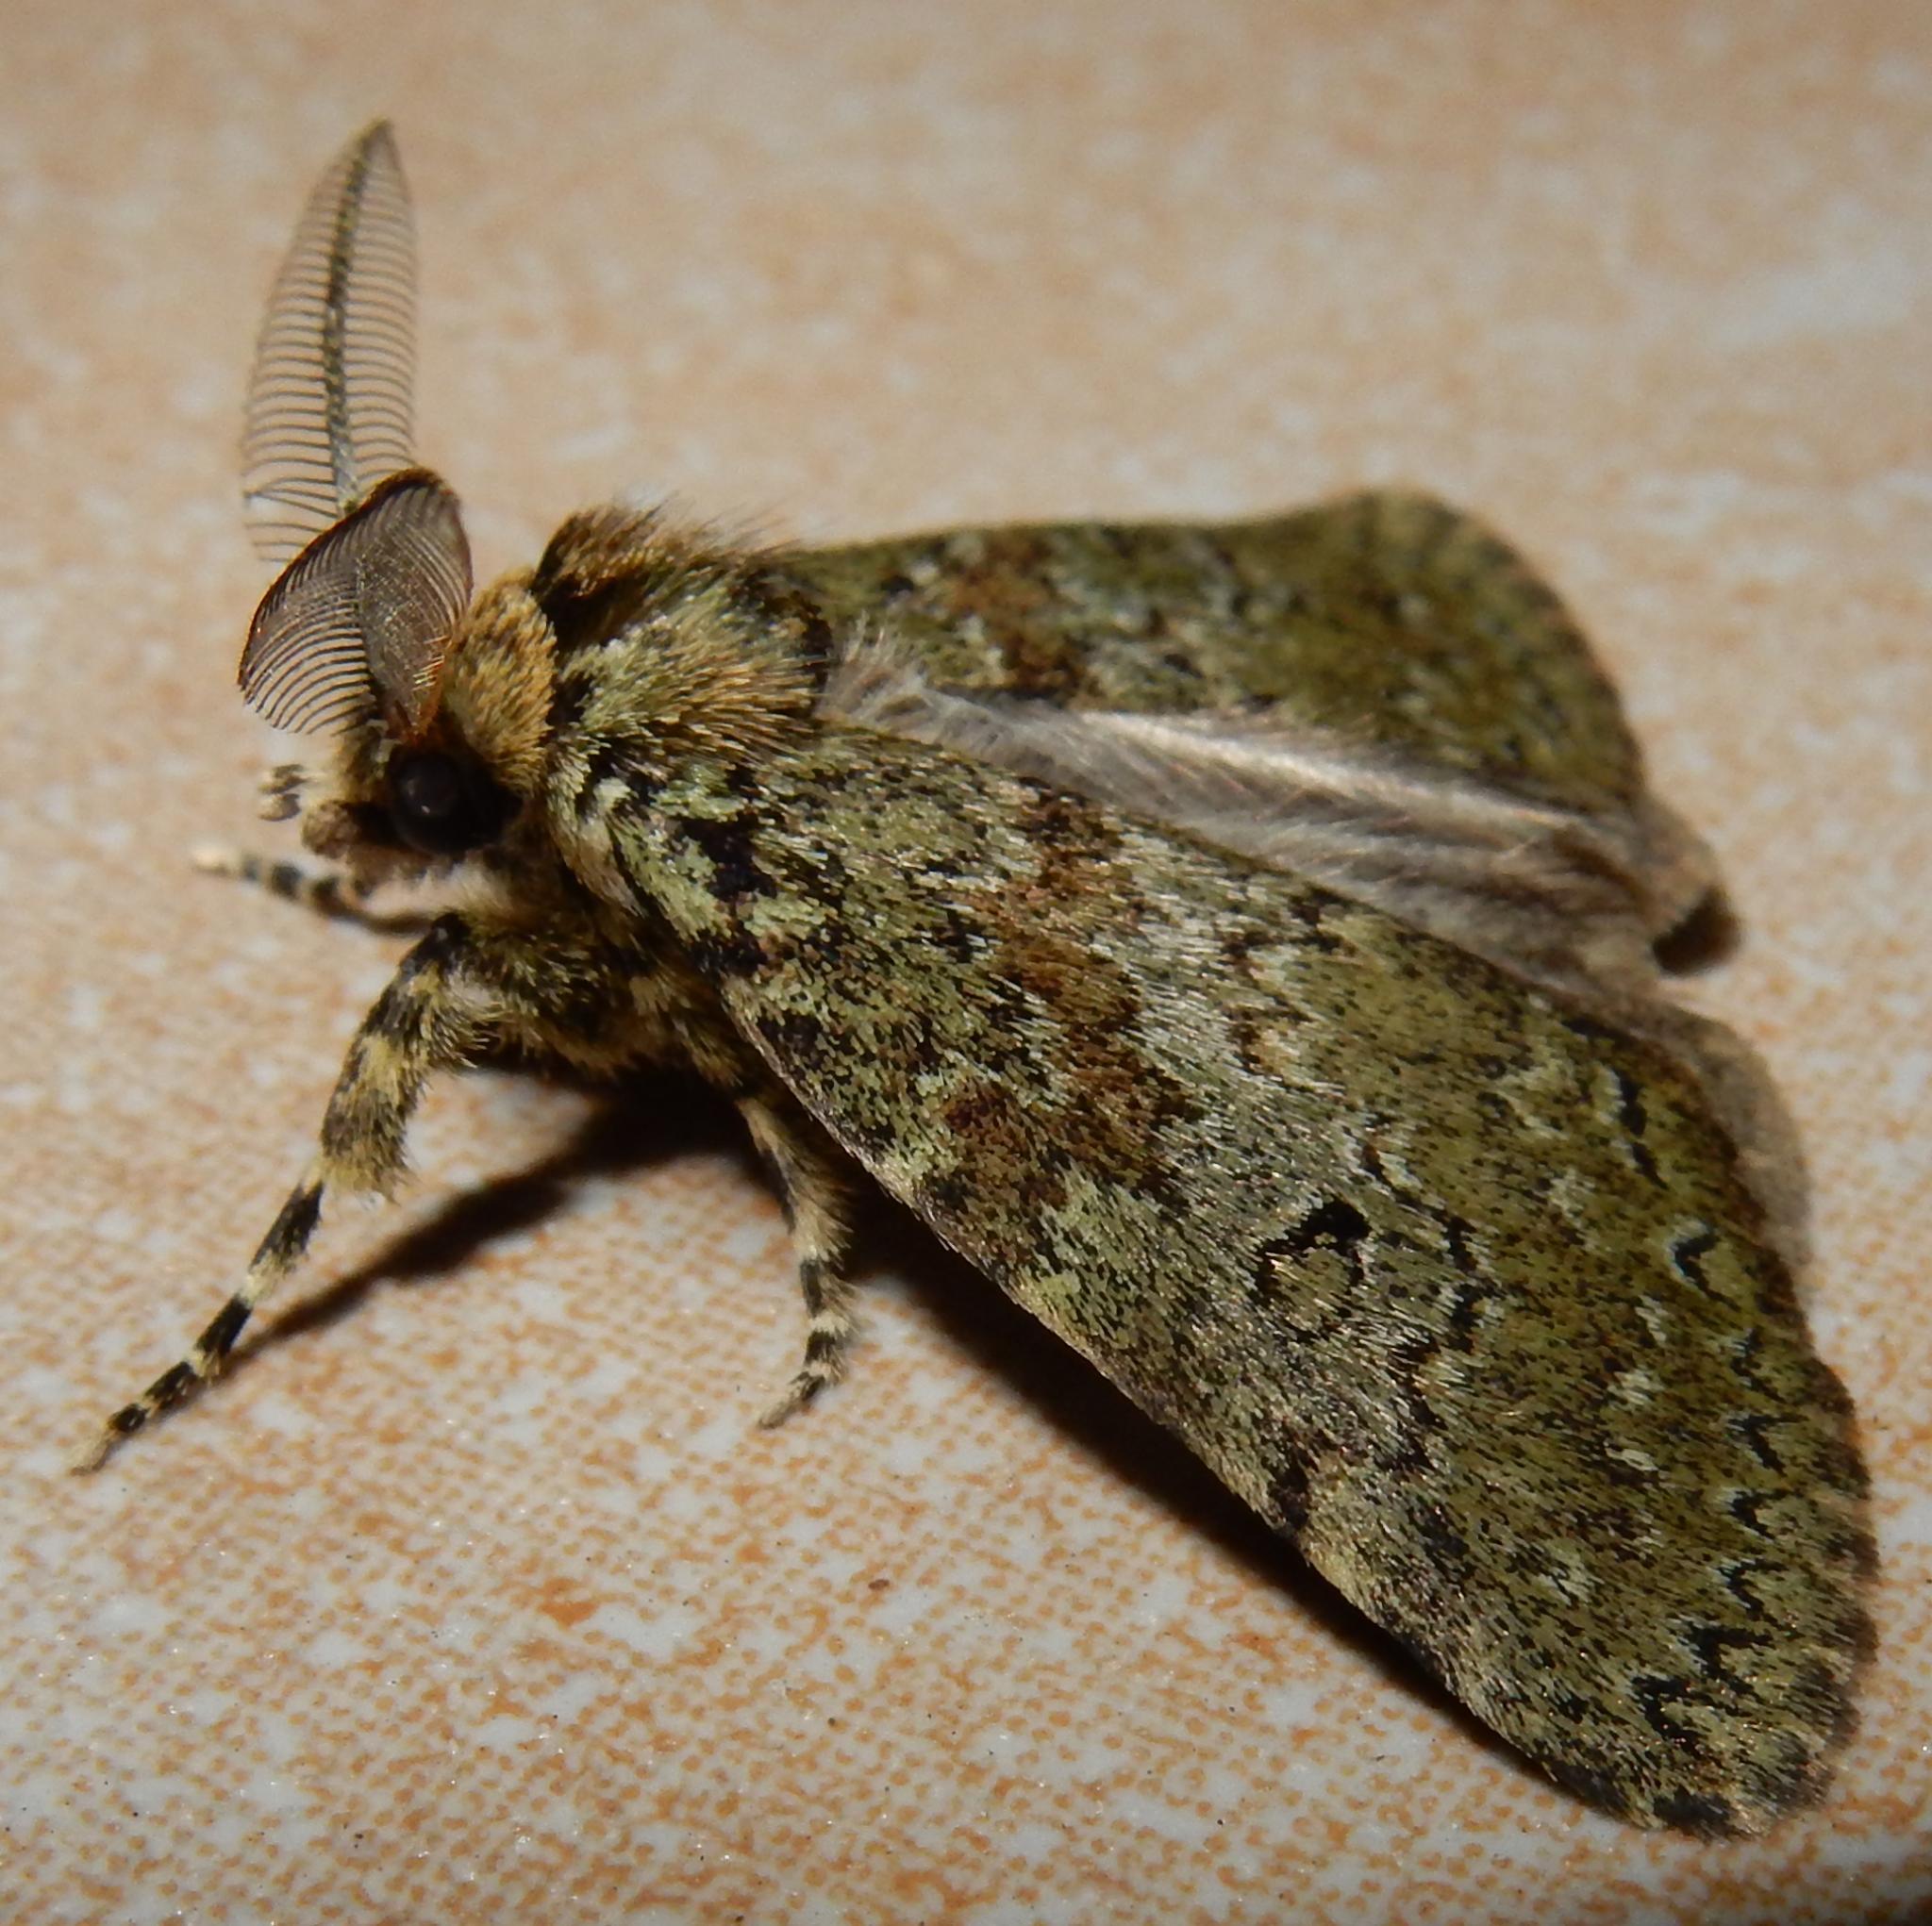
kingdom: Animalia
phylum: Arthropoda
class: Insecta
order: Lepidoptera
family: Erebidae
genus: Laelia
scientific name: Laelia fusca
